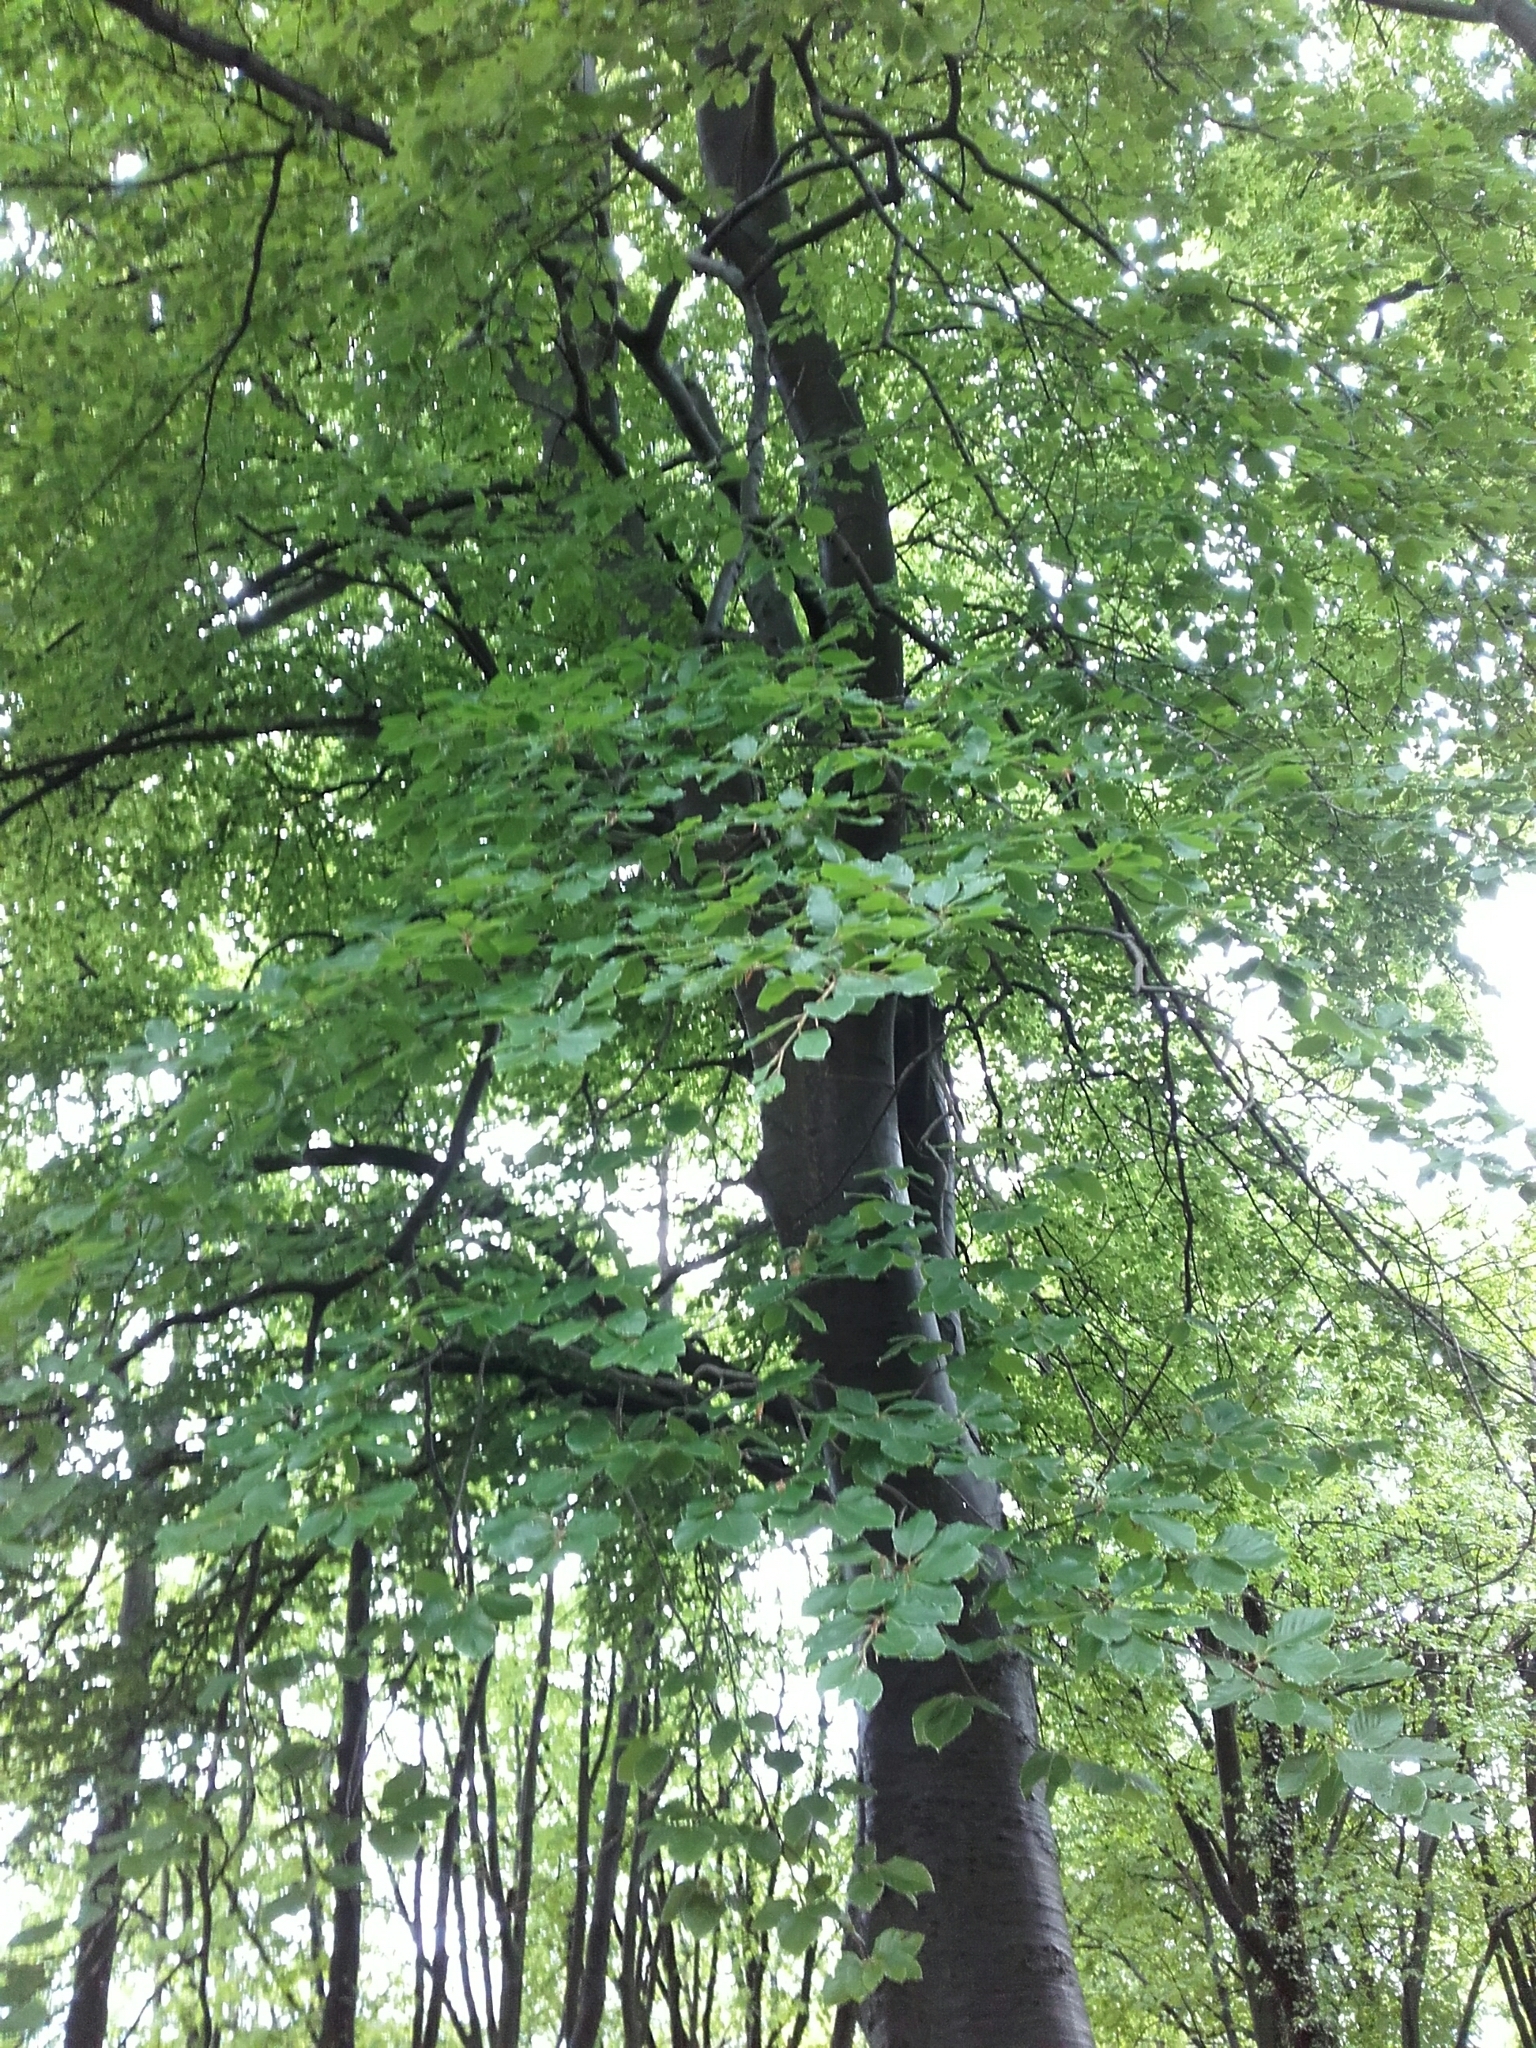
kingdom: Plantae
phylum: Tracheophyta
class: Magnoliopsida
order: Fagales
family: Fagaceae
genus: Fagus
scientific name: Fagus sylvatica
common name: Beech
